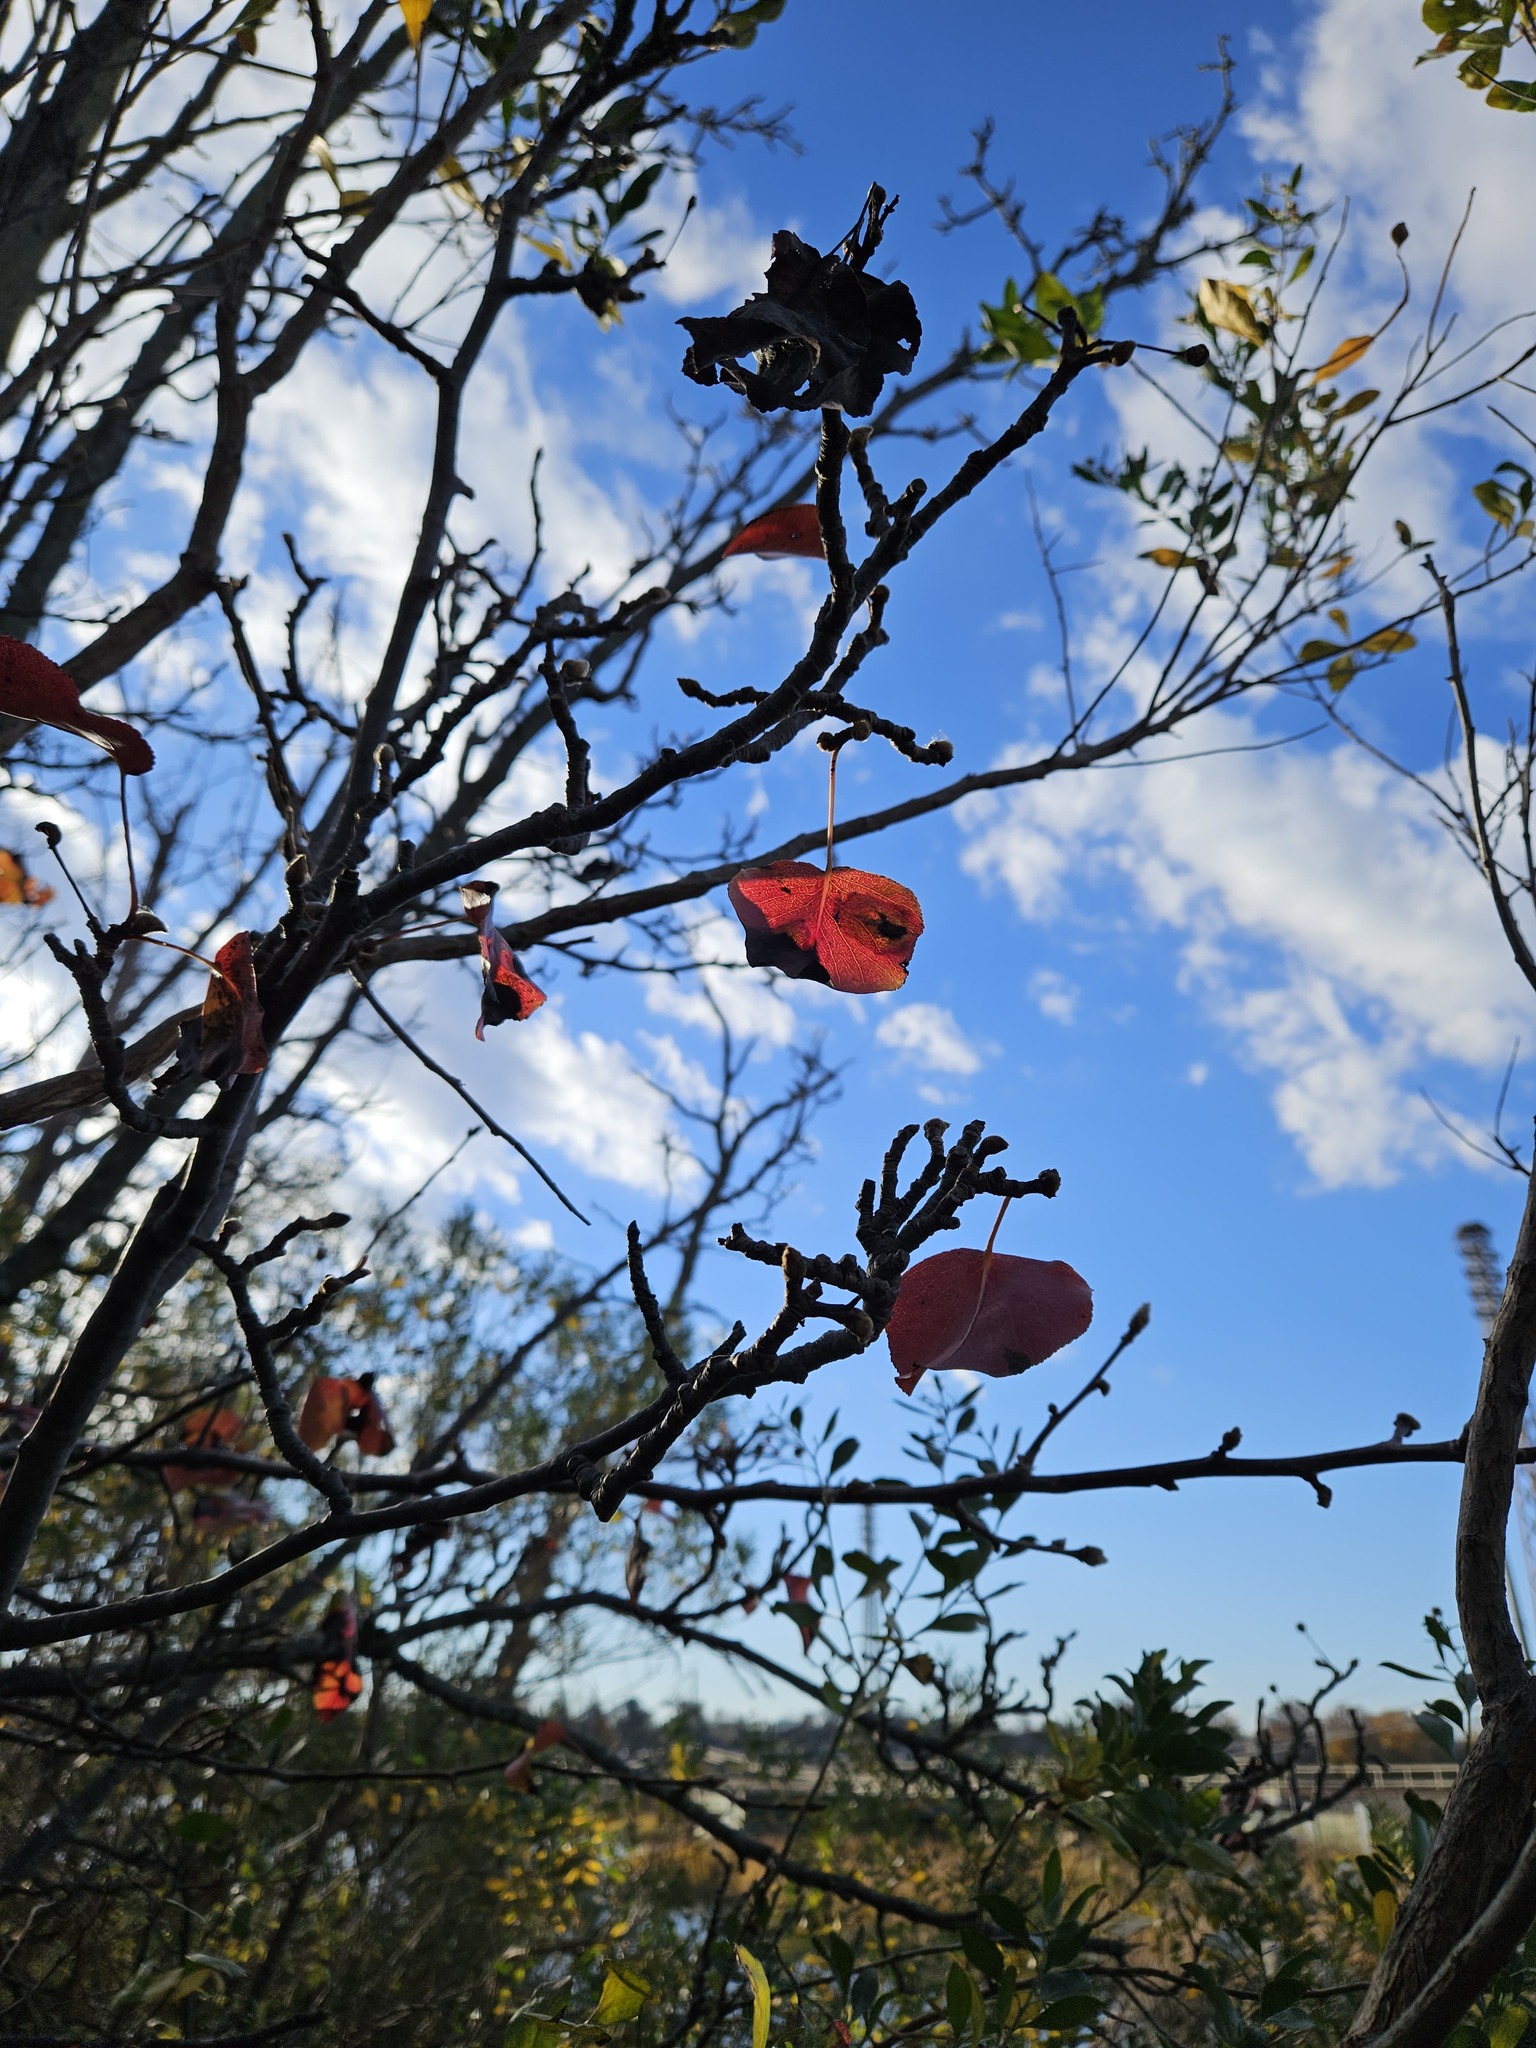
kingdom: Plantae
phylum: Tracheophyta
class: Magnoliopsida
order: Rosales
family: Rosaceae
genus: Pyrus
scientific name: Pyrus calleryana
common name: Callery pear
